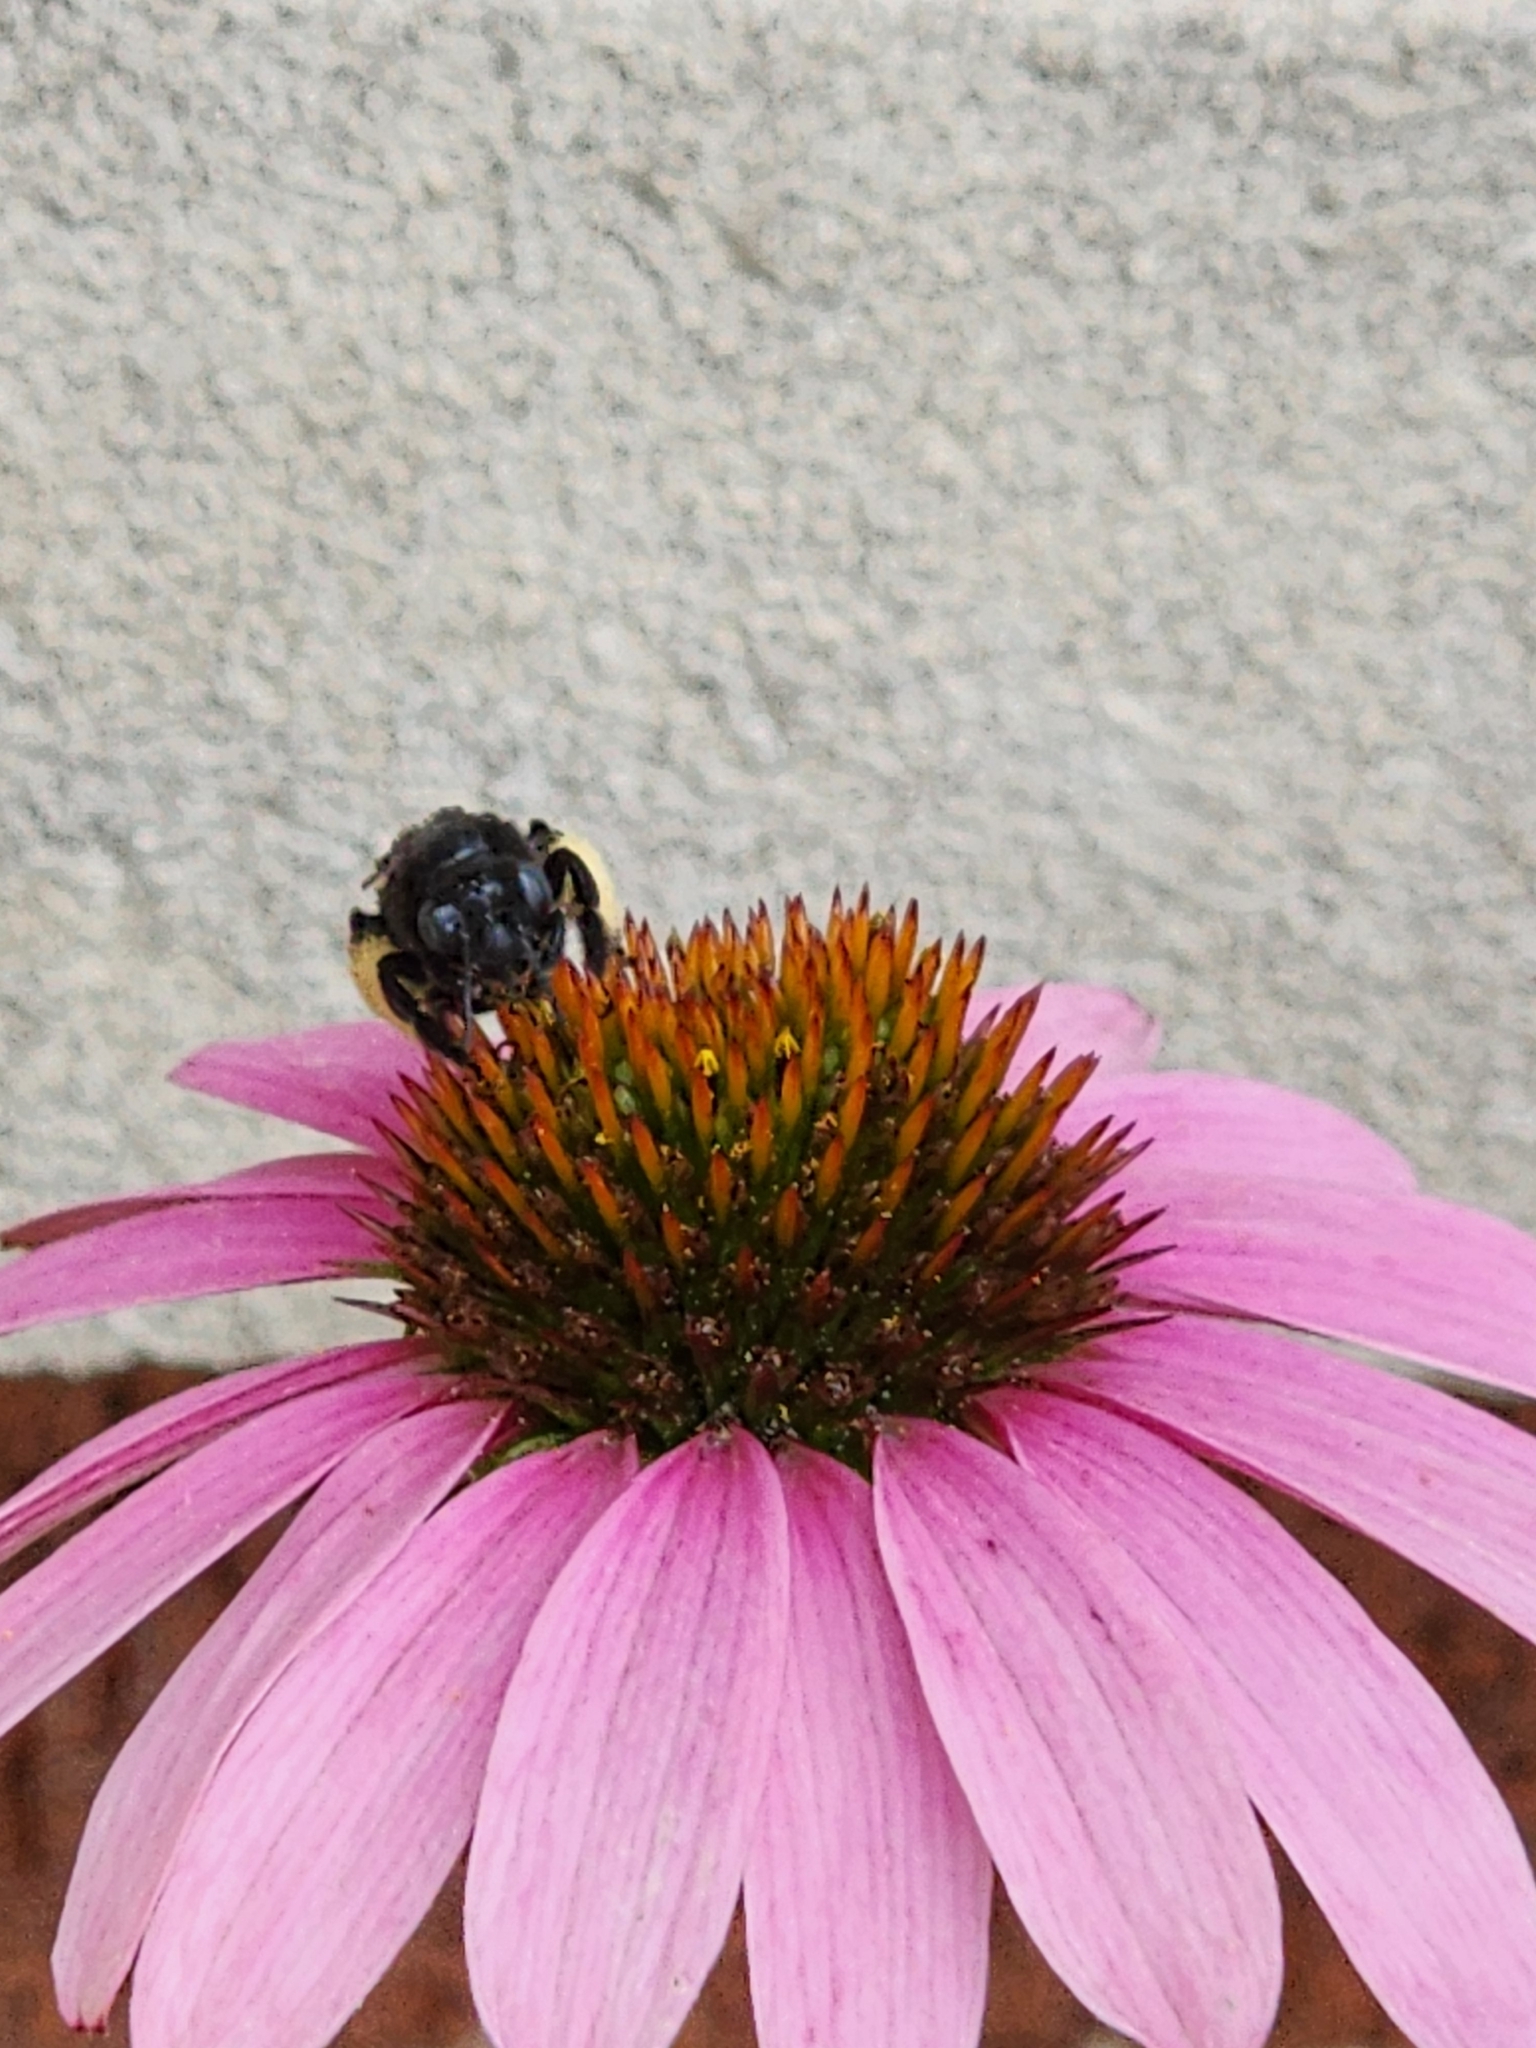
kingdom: Animalia
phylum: Arthropoda
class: Insecta
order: Hymenoptera
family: Apidae
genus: Melissodes
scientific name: Melissodes bimaculatus
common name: Two-spotted long-horned bee
